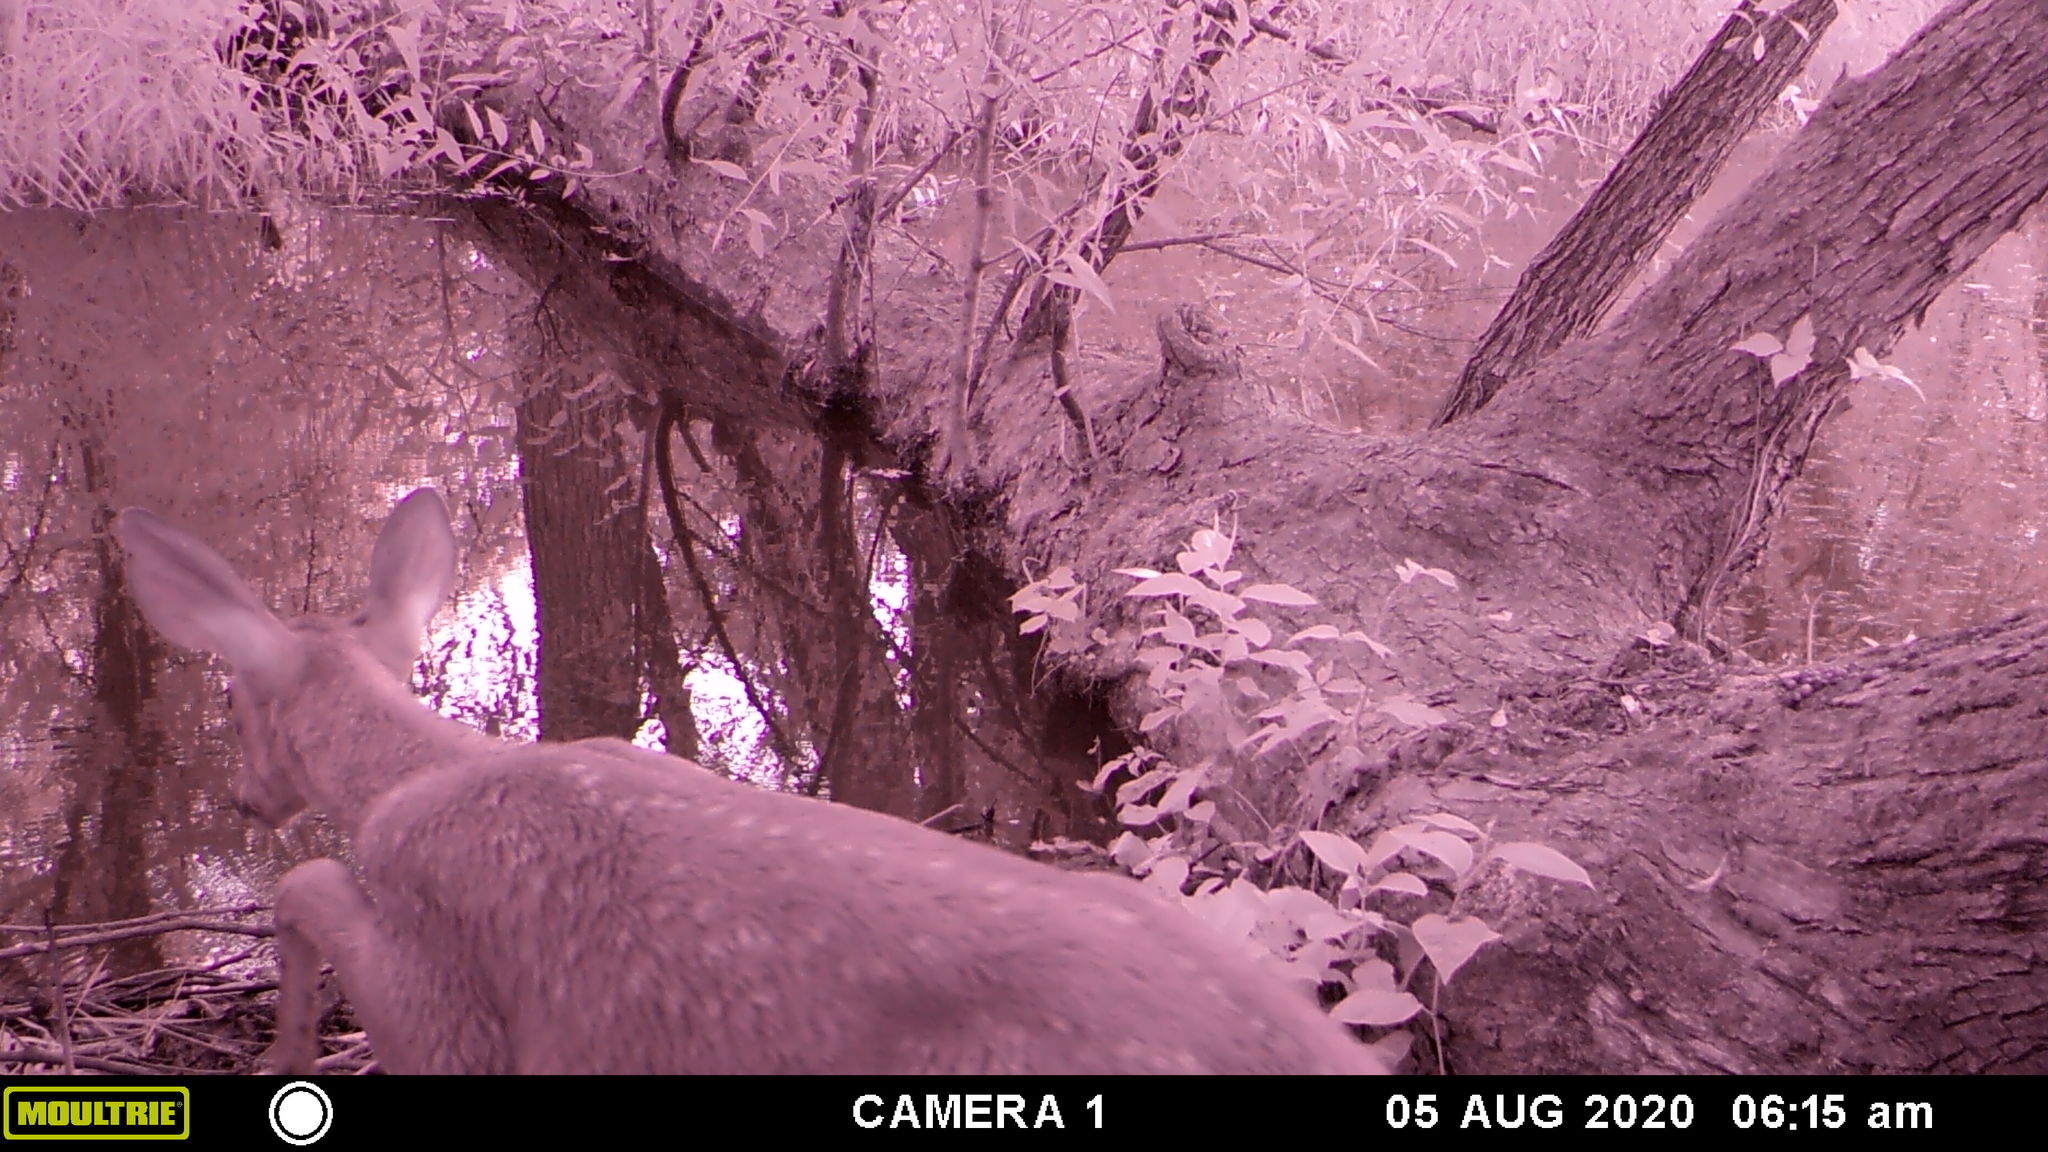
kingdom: Animalia
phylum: Chordata
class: Mammalia
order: Artiodactyla
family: Cervidae
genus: Odocoileus
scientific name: Odocoileus virginianus
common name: White-tailed deer
